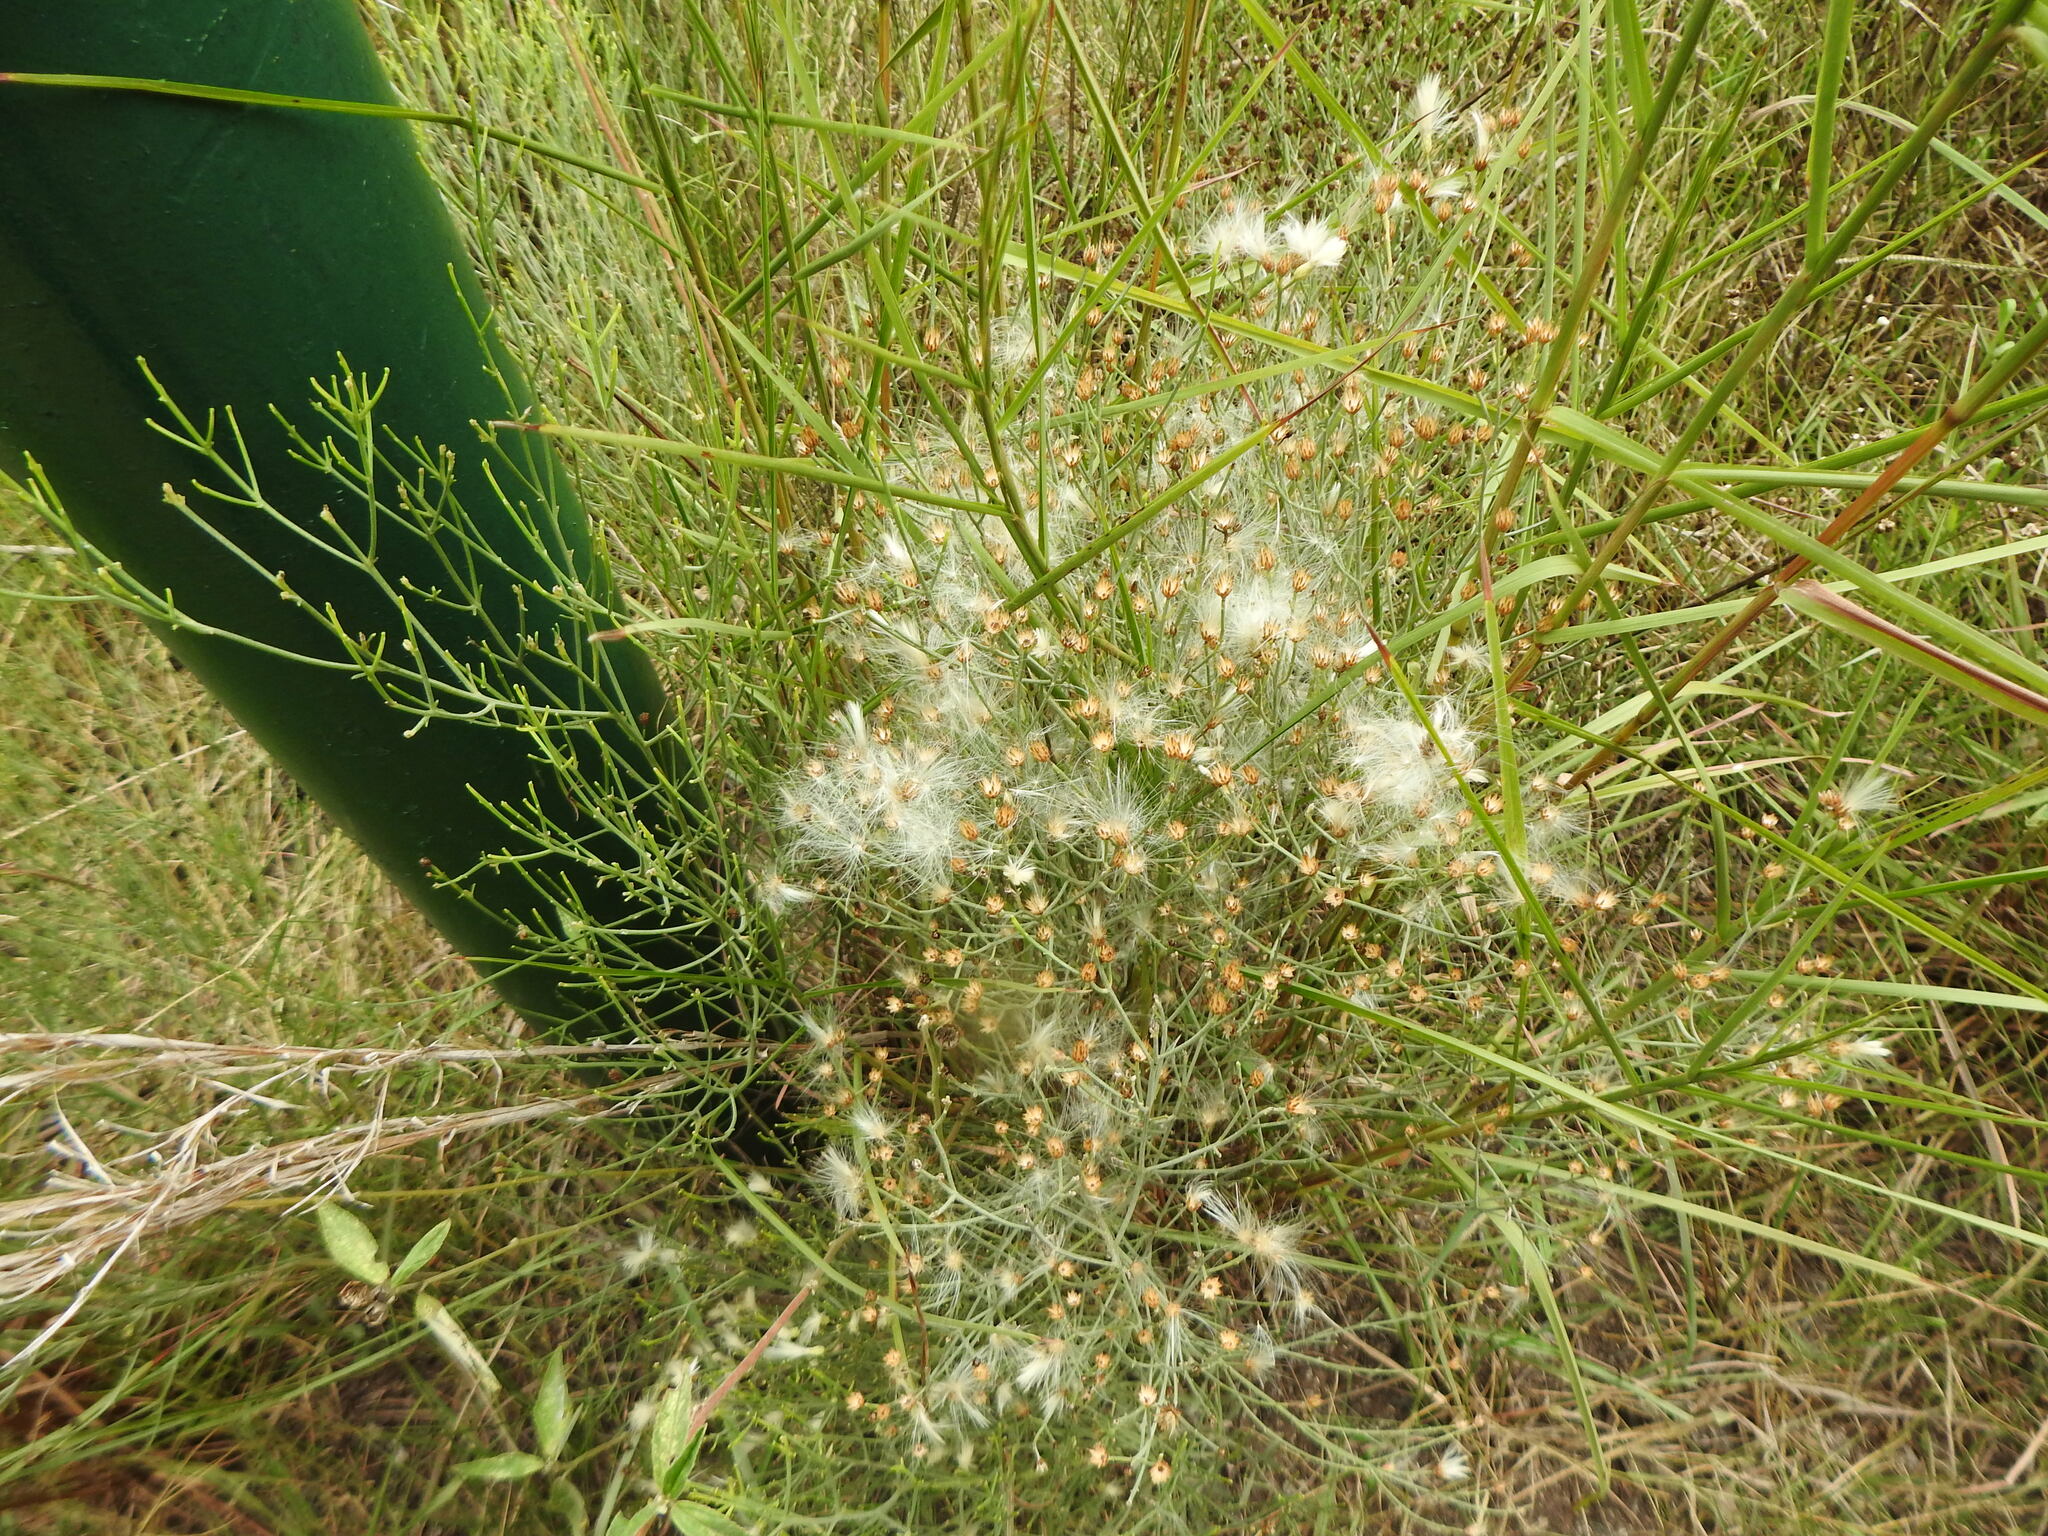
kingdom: Plantae
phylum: Tracheophyta
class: Magnoliopsida
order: Asterales
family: Asteraceae
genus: Baccharis
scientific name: Baccharis notosergila
